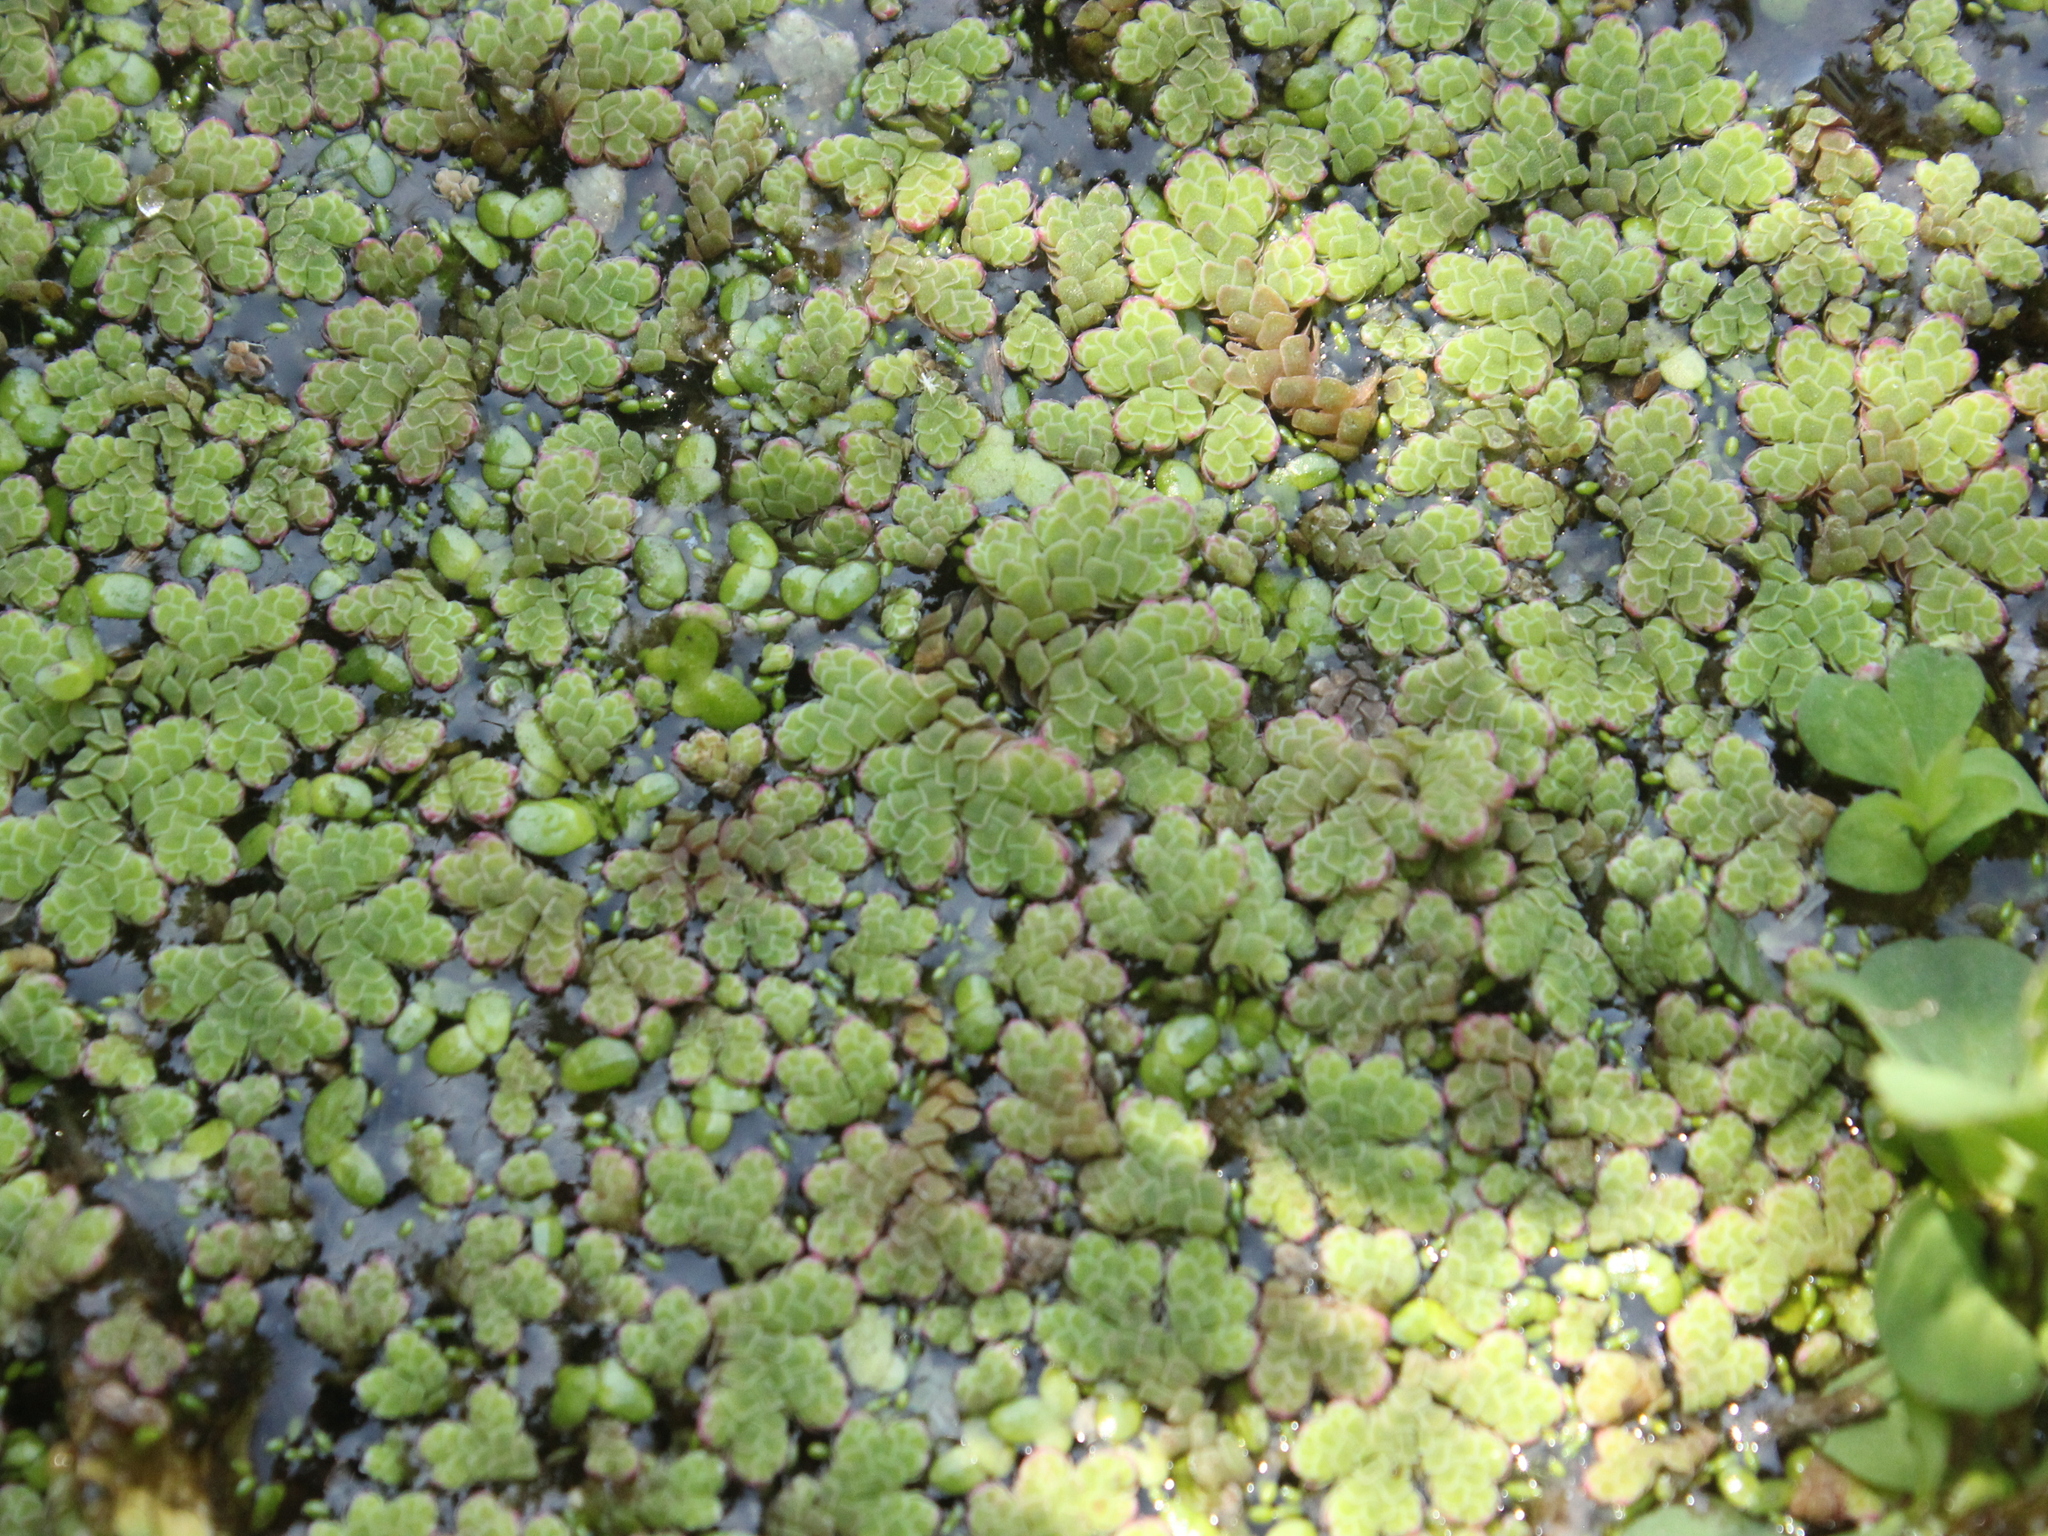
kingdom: Plantae
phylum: Tracheophyta
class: Polypodiopsida
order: Salviniales
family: Salviniaceae
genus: Azolla
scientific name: Azolla rubra
